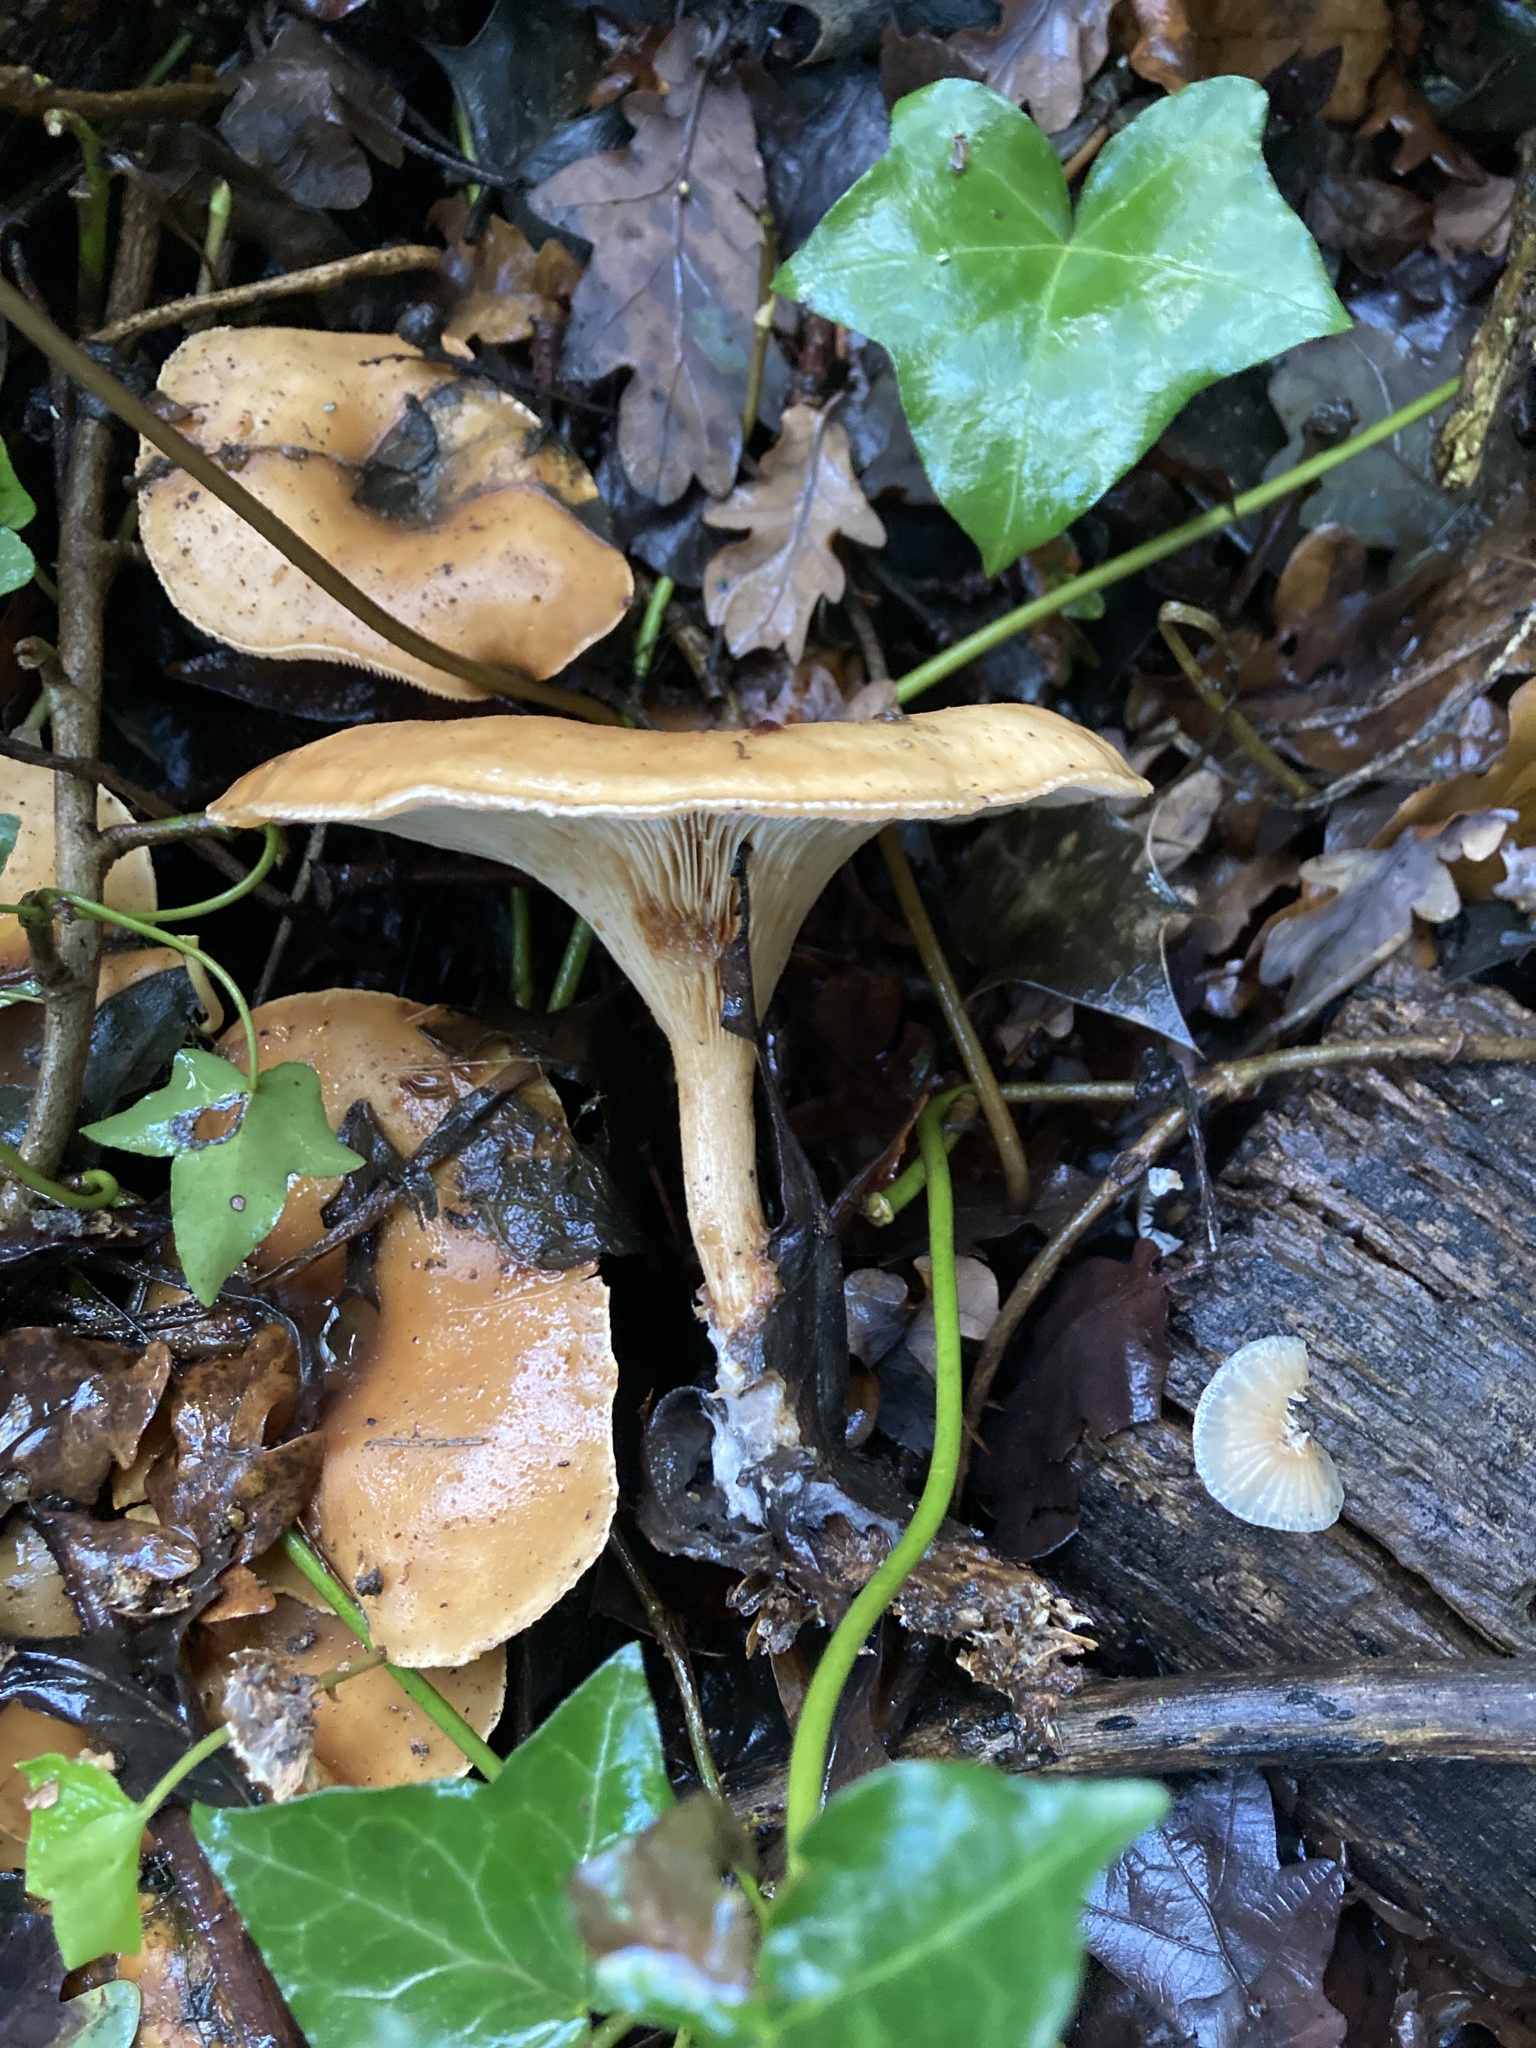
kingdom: Fungi
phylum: Basidiomycota
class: Agaricomycetes
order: Agaricales
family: Tricholomataceae
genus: Paralepista
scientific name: Paralepista flaccida
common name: Tawny funnel cap
